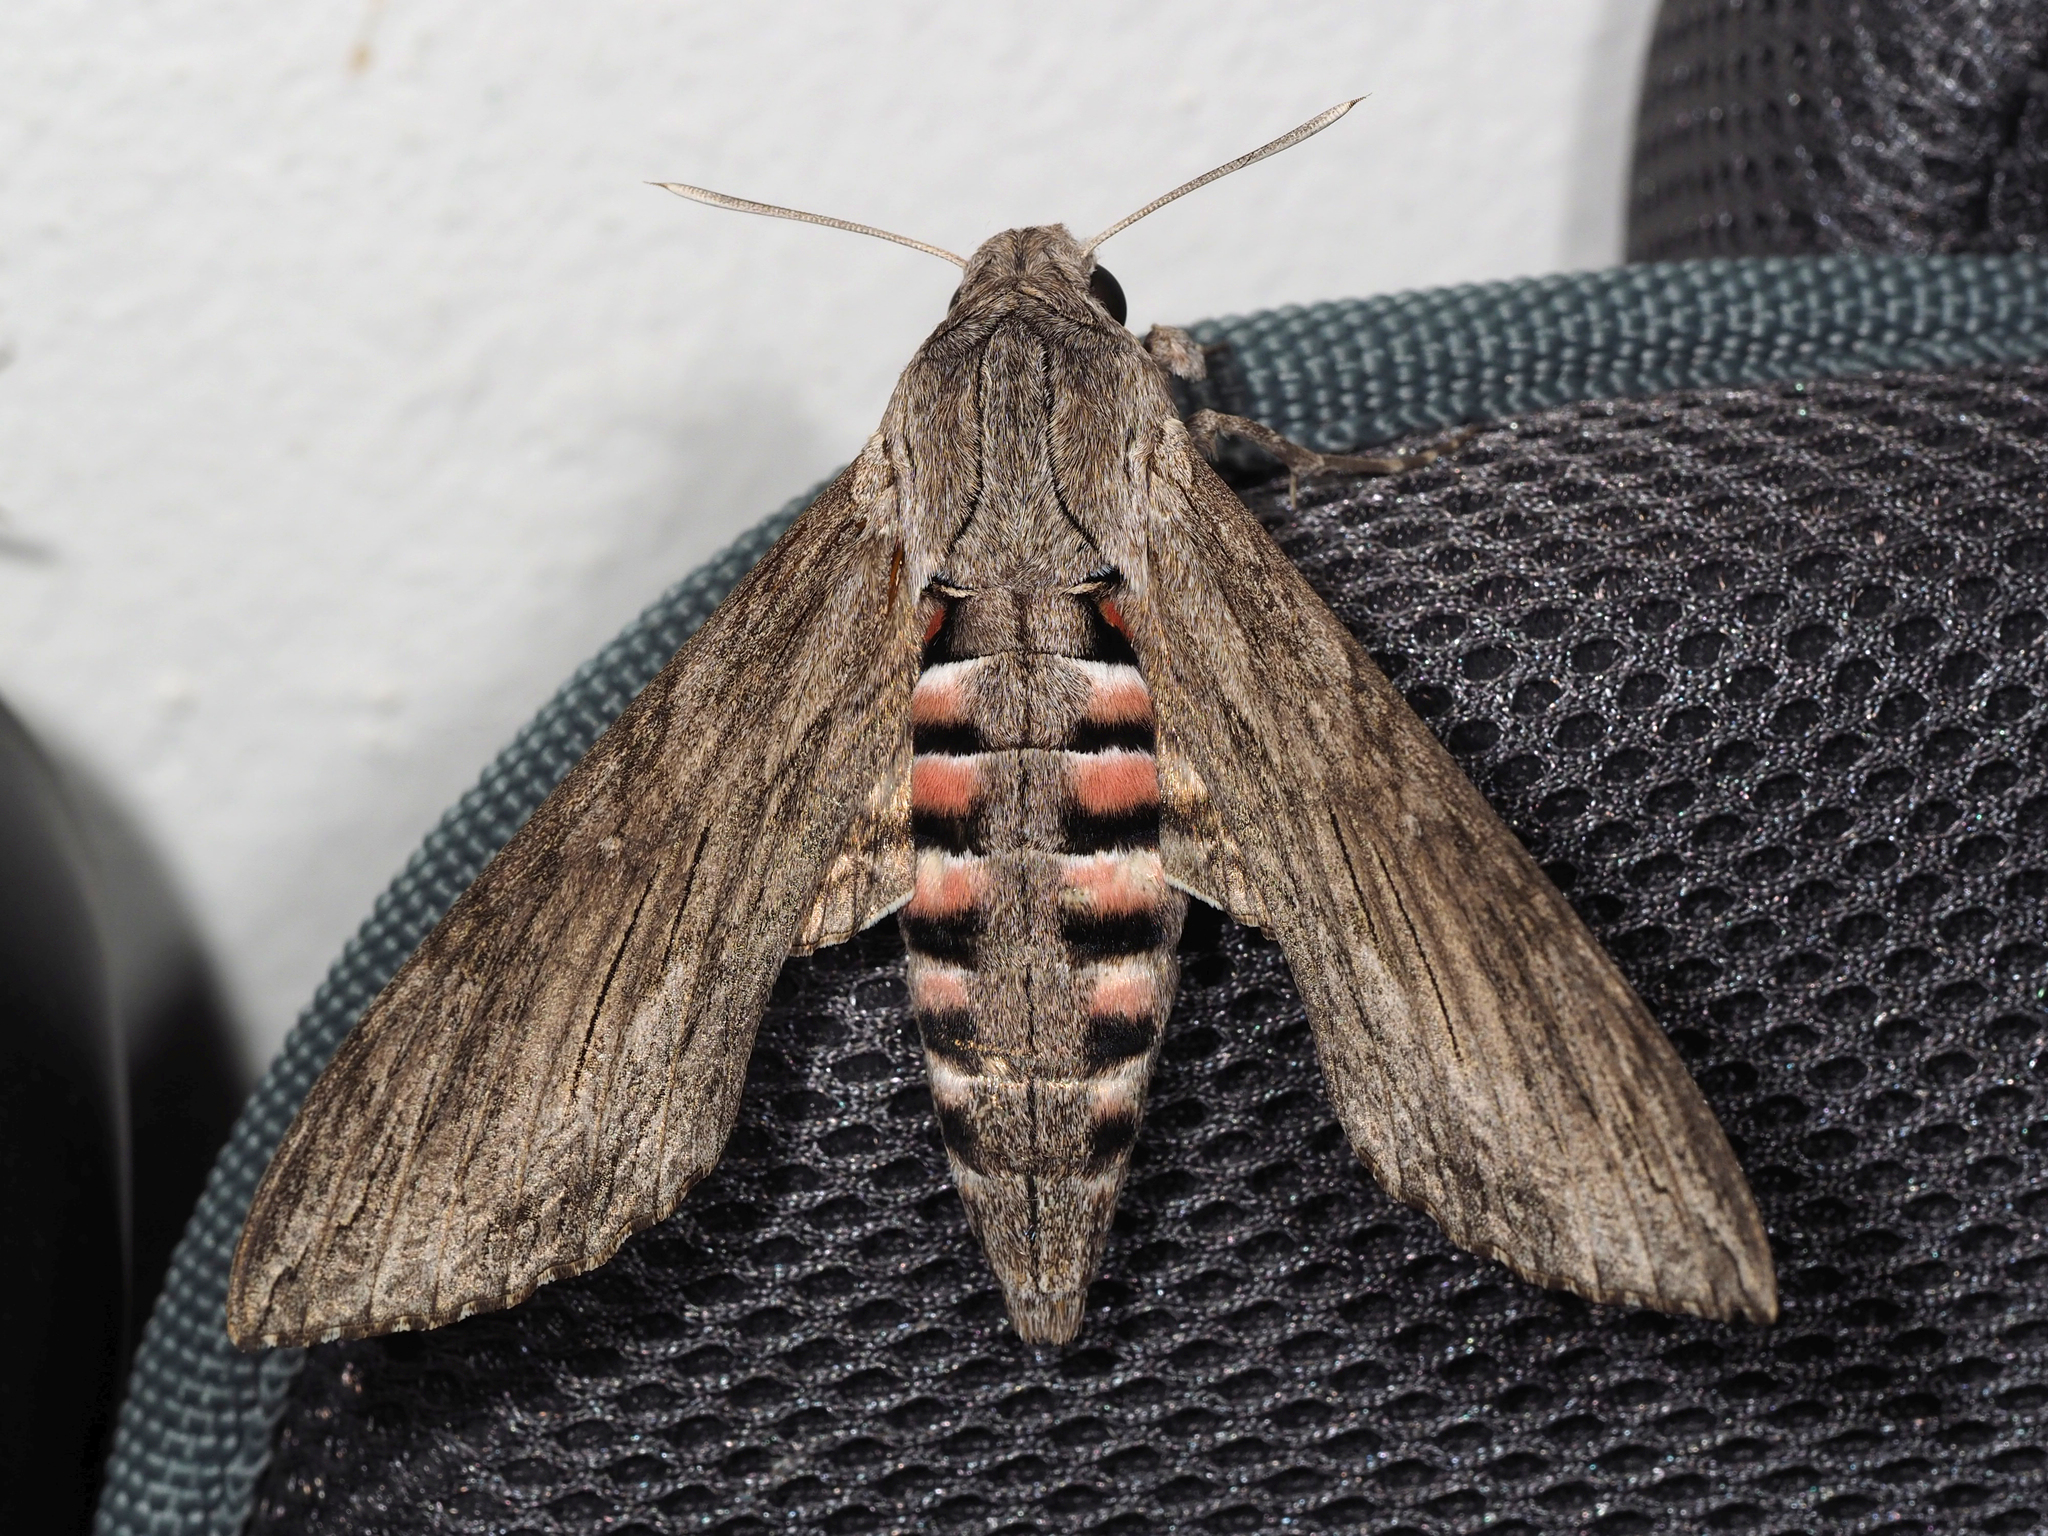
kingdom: Animalia
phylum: Arthropoda
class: Insecta
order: Lepidoptera
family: Sphingidae
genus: Agrius
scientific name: Agrius convolvuli
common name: Convolvulus hawkmoth
